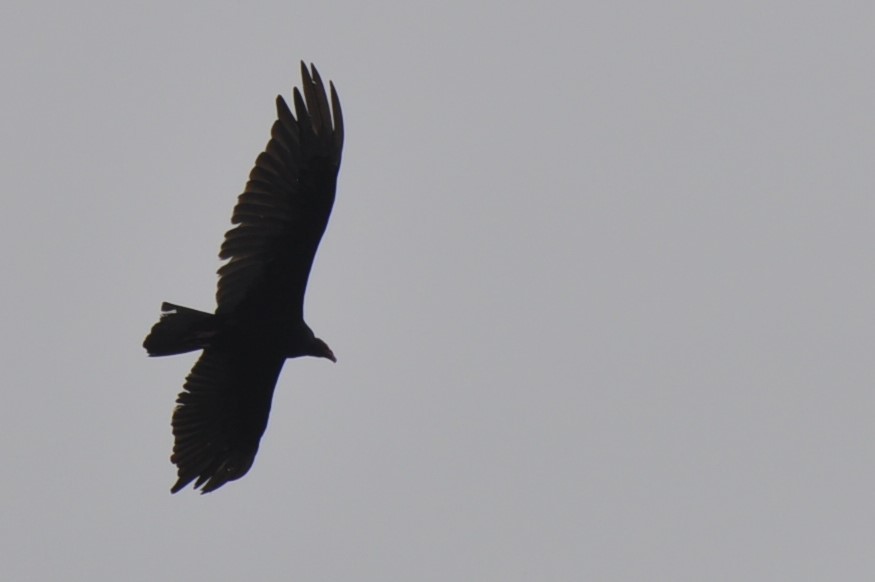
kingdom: Animalia
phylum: Chordata
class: Aves
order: Accipitriformes
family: Cathartidae
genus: Cathartes
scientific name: Cathartes aura
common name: Turkey vulture
